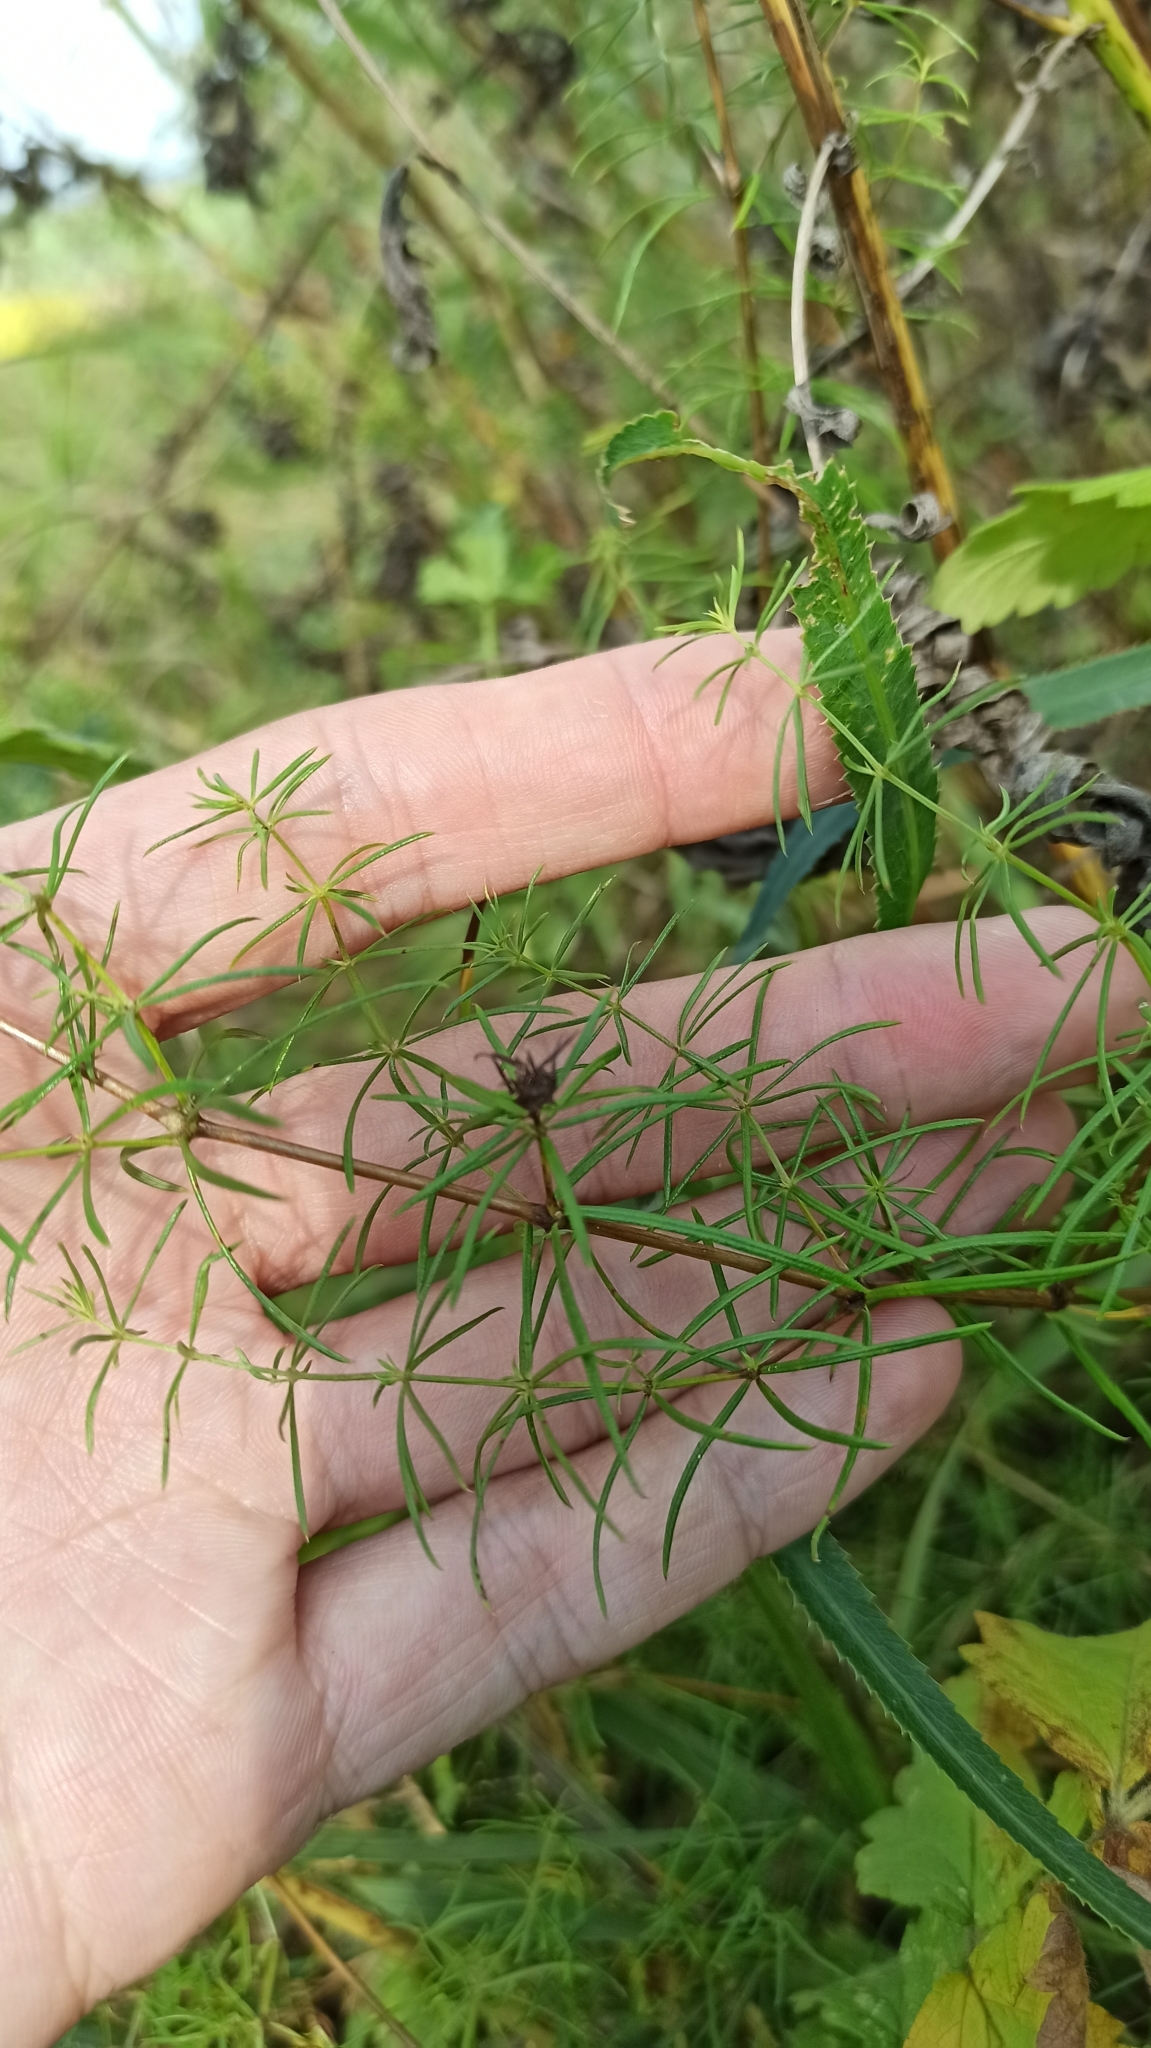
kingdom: Plantae
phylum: Tracheophyta
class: Magnoliopsida
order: Gentianales
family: Rubiaceae
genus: Galium
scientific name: Galium verum
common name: Lady's bedstraw
